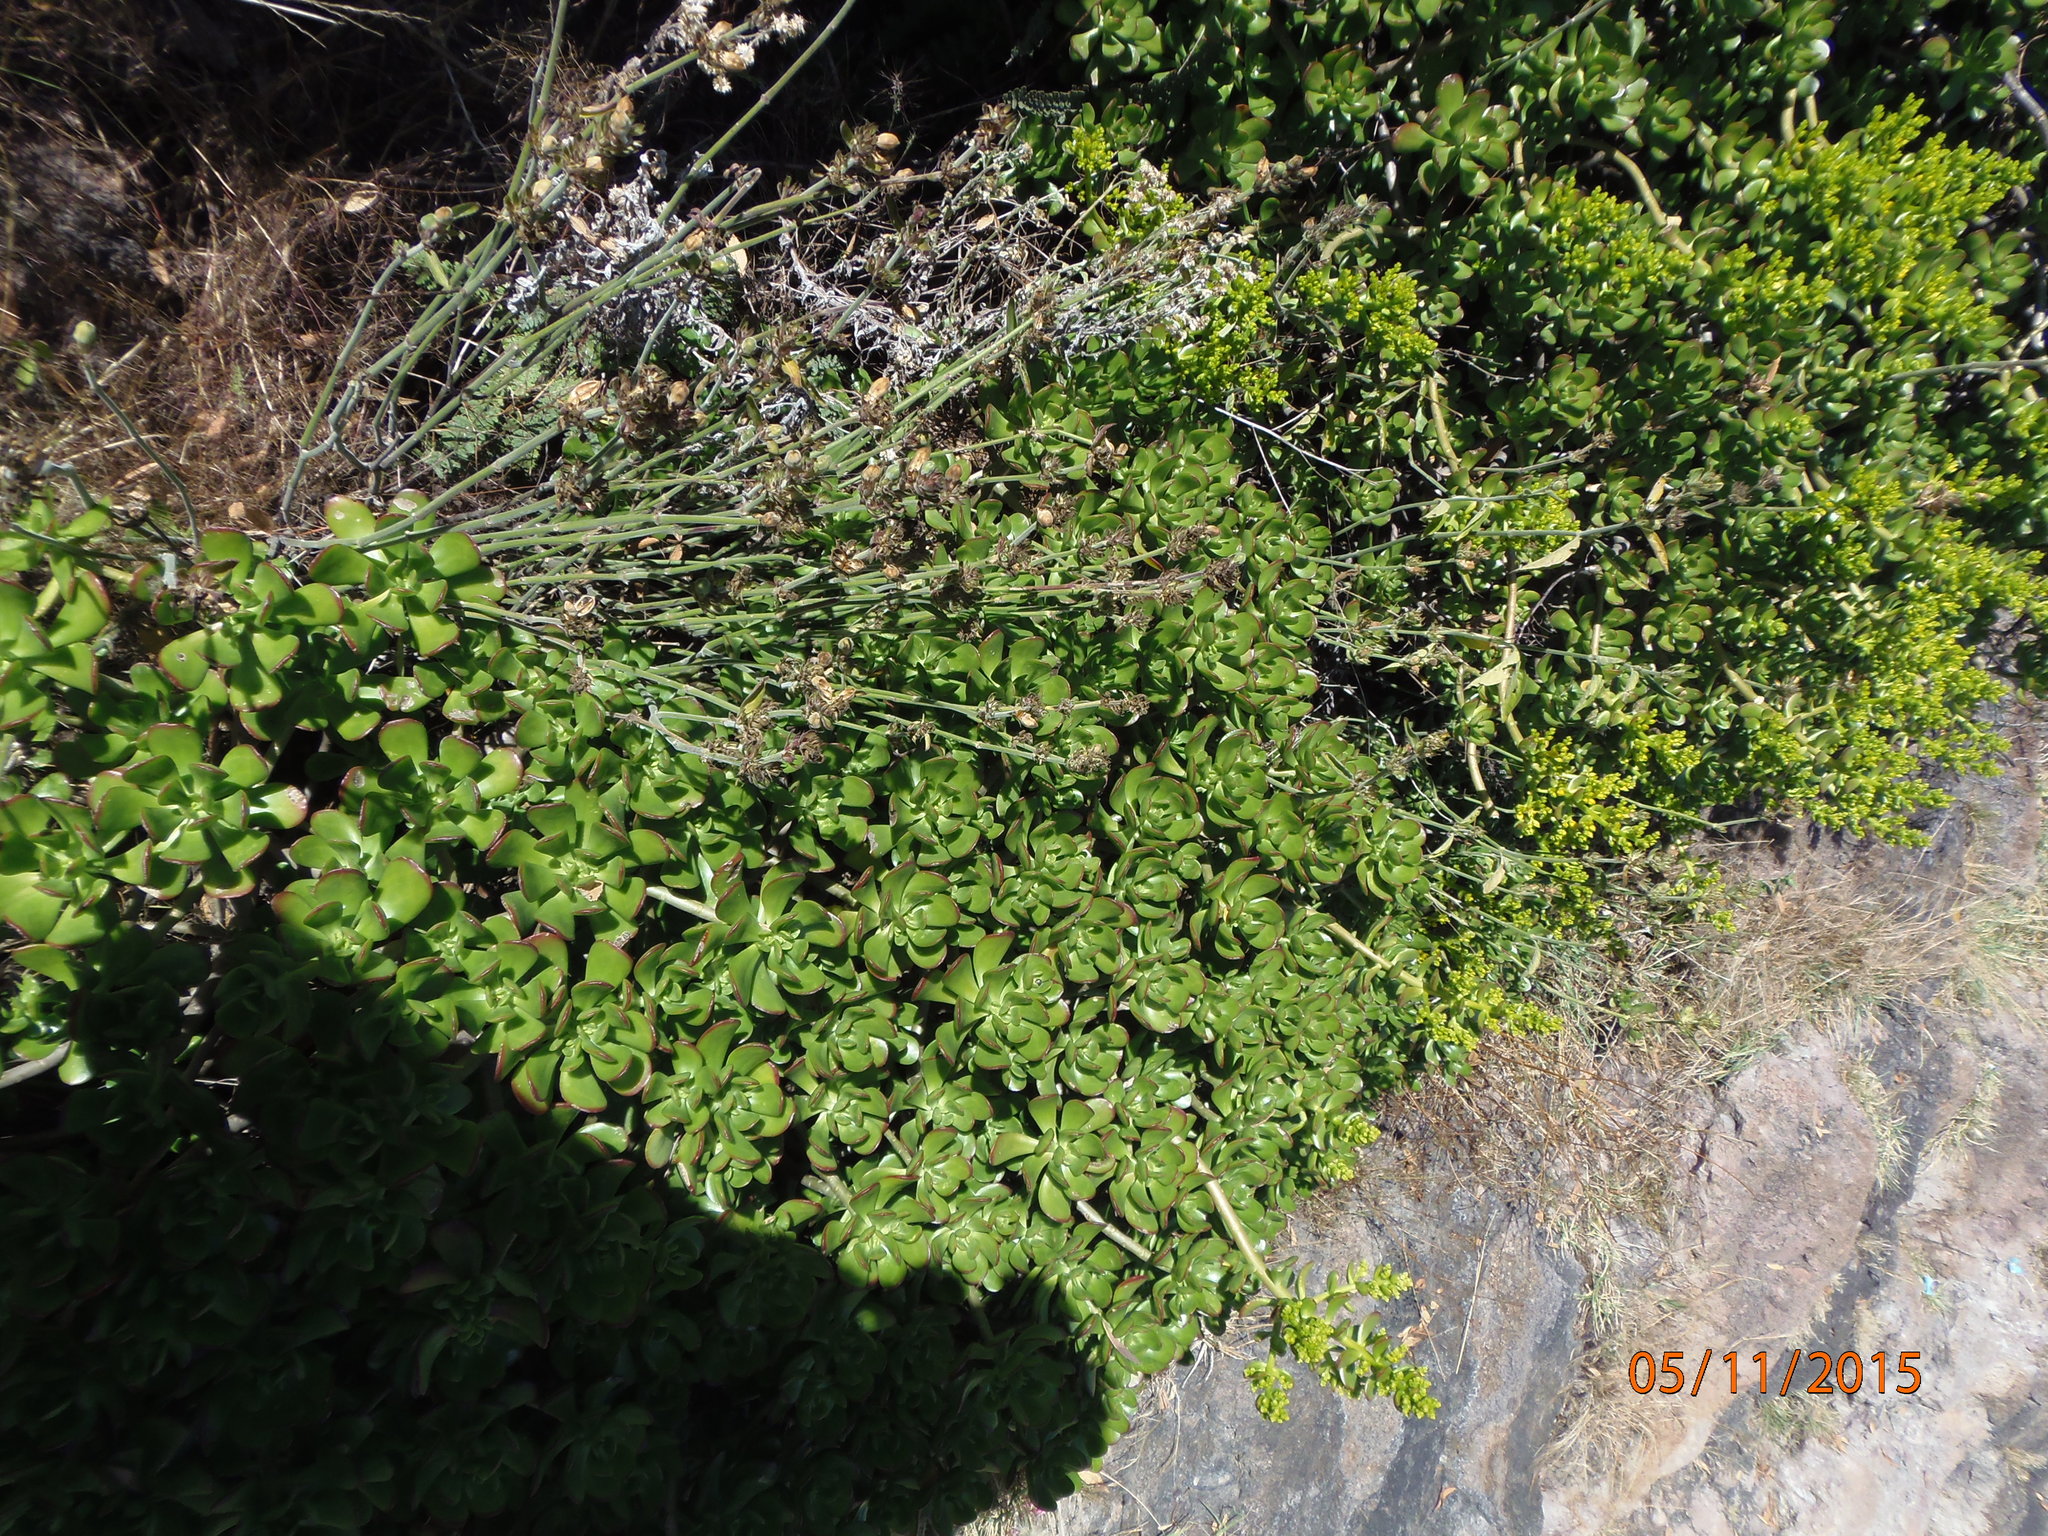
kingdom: Plantae
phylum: Tracheophyta
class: Magnoliopsida
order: Saxifragales
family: Crassulaceae
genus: Sedum
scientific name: Sedum
